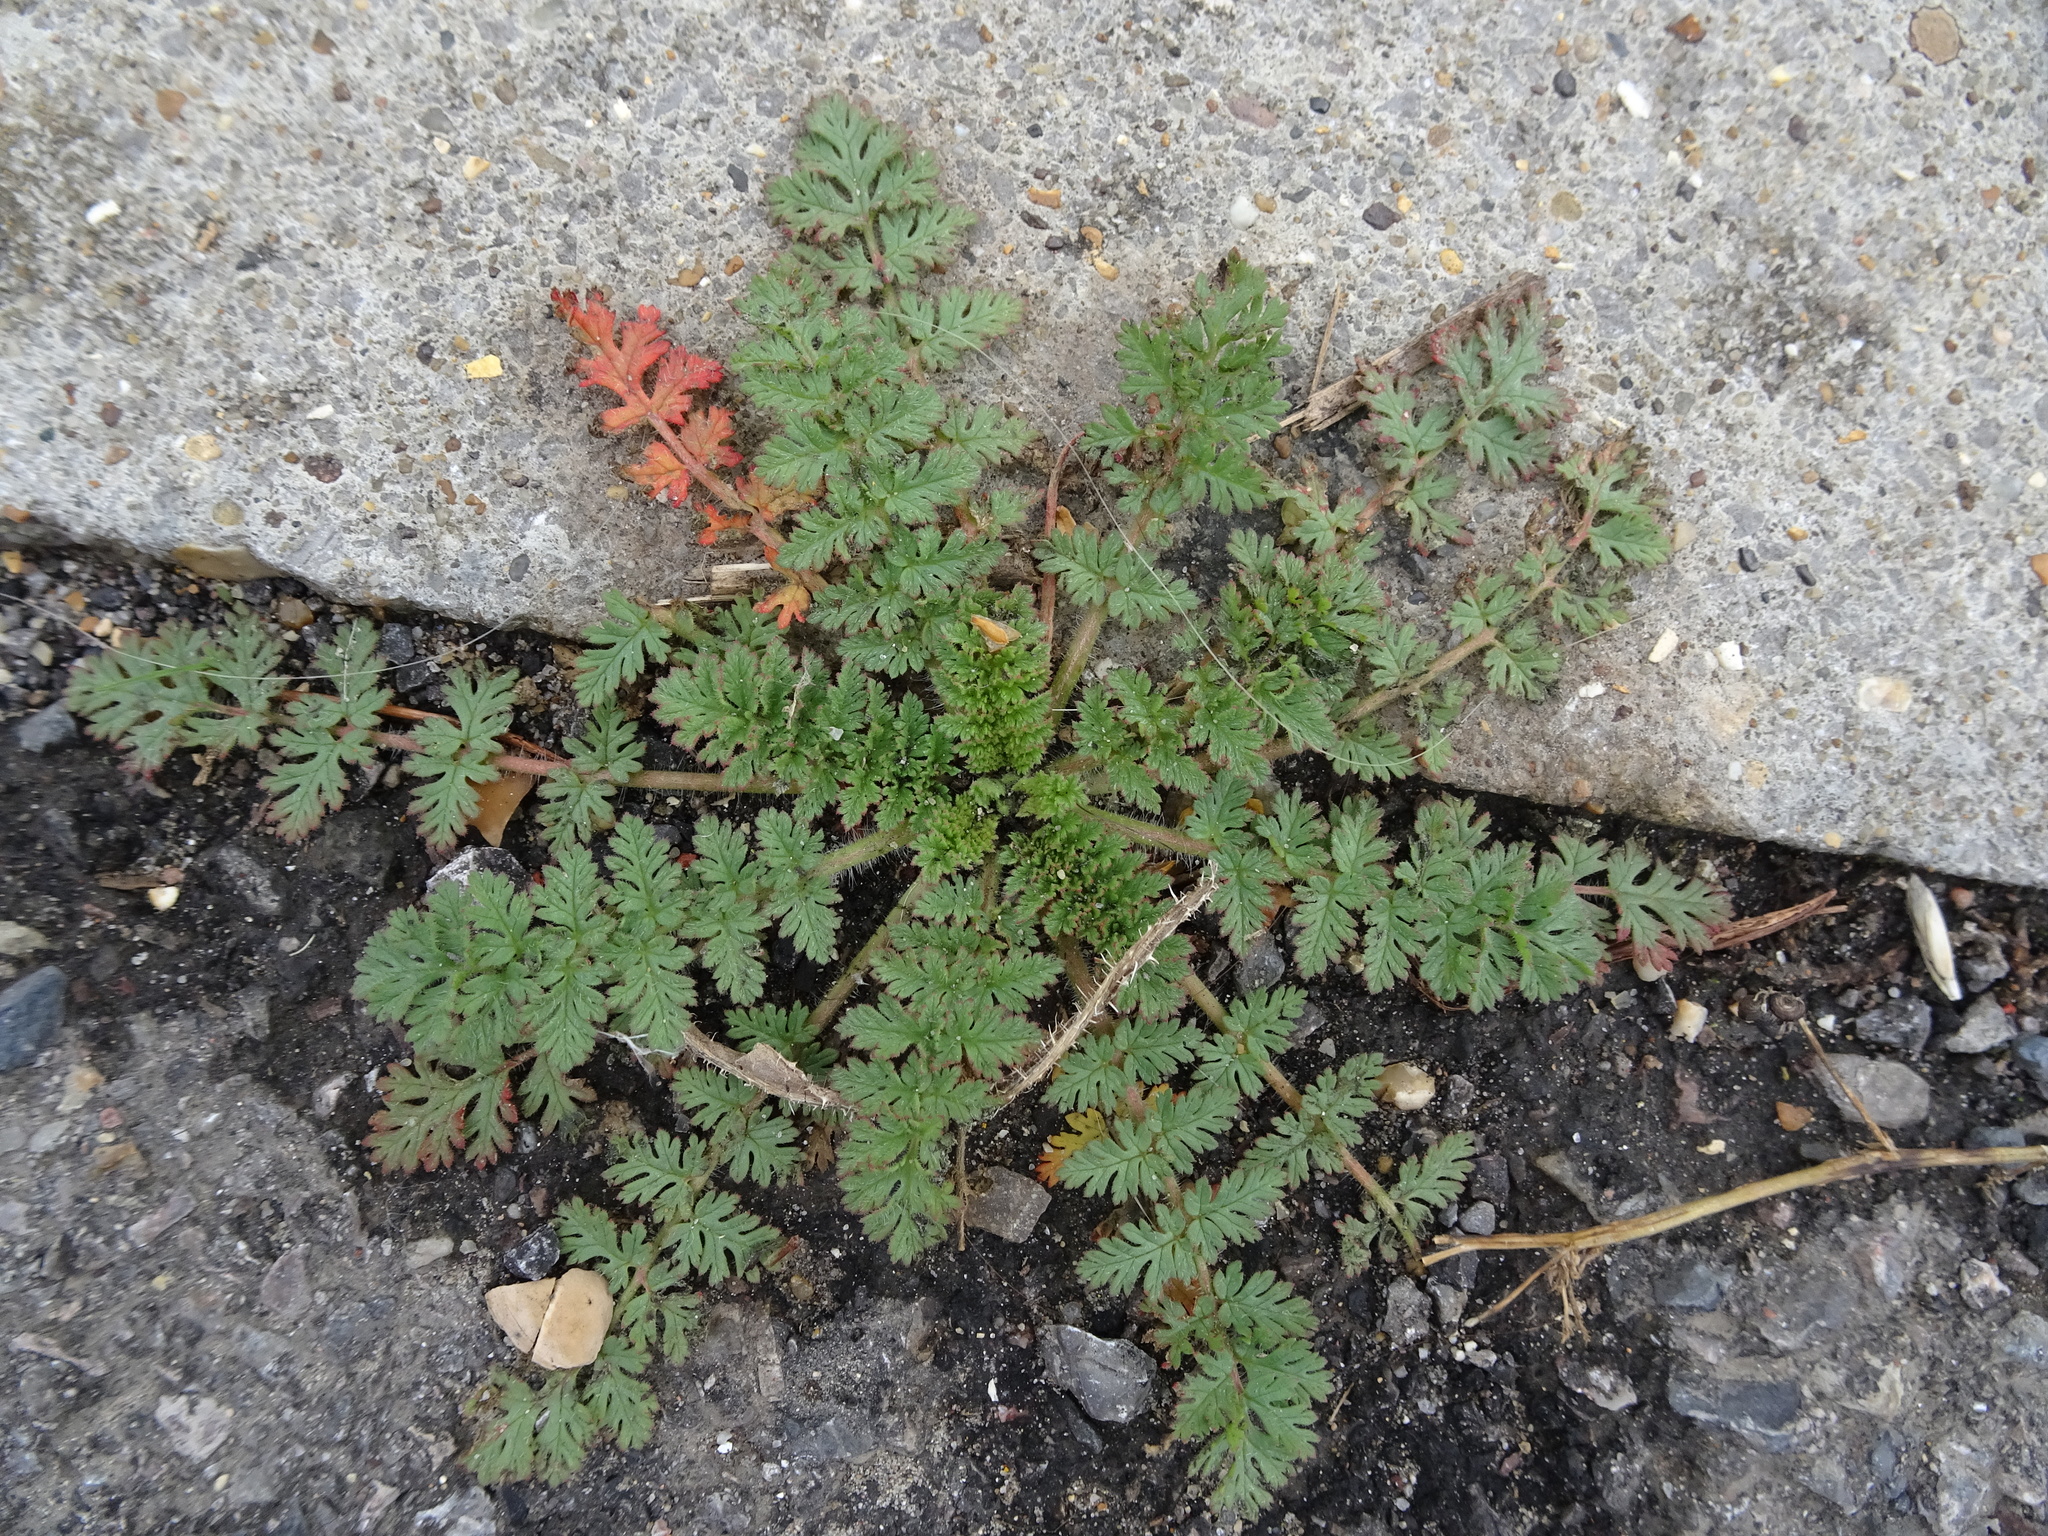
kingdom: Plantae
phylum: Tracheophyta
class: Magnoliopsida
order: Geraniales
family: Geraniaceae
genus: Erodium
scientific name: Erodium cicutarium
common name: Common stork's-bill
